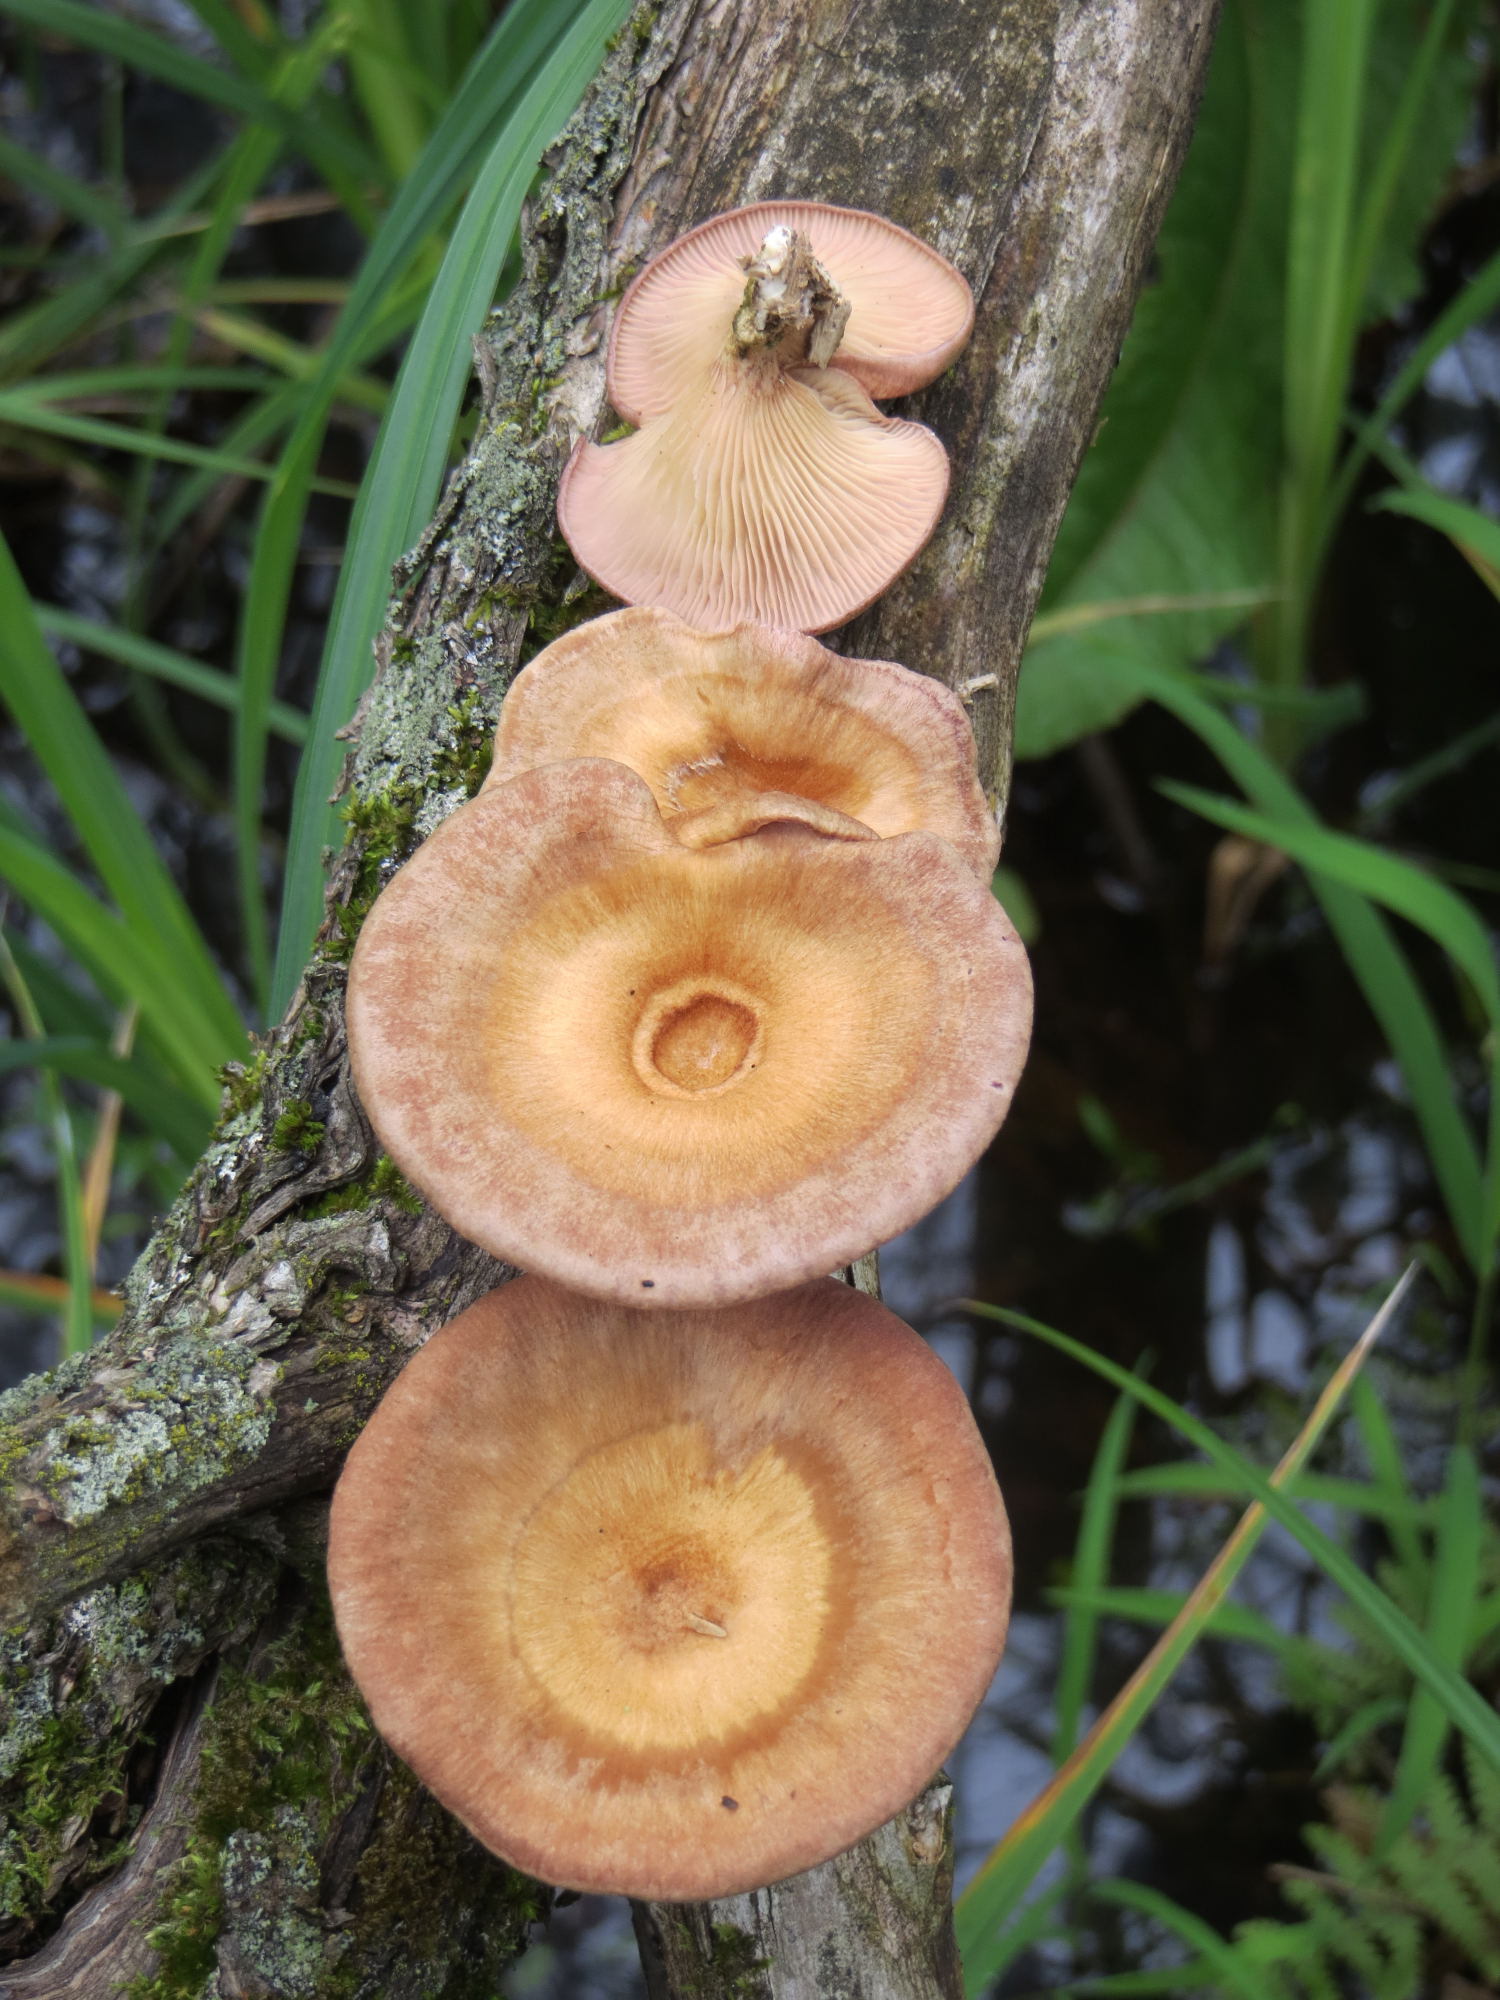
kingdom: Fungi
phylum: Basidiomycota
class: Agaricomycetes
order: Polyporales
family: Panaceae
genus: Panus
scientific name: Panus conchatus
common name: Lilac oysterling
